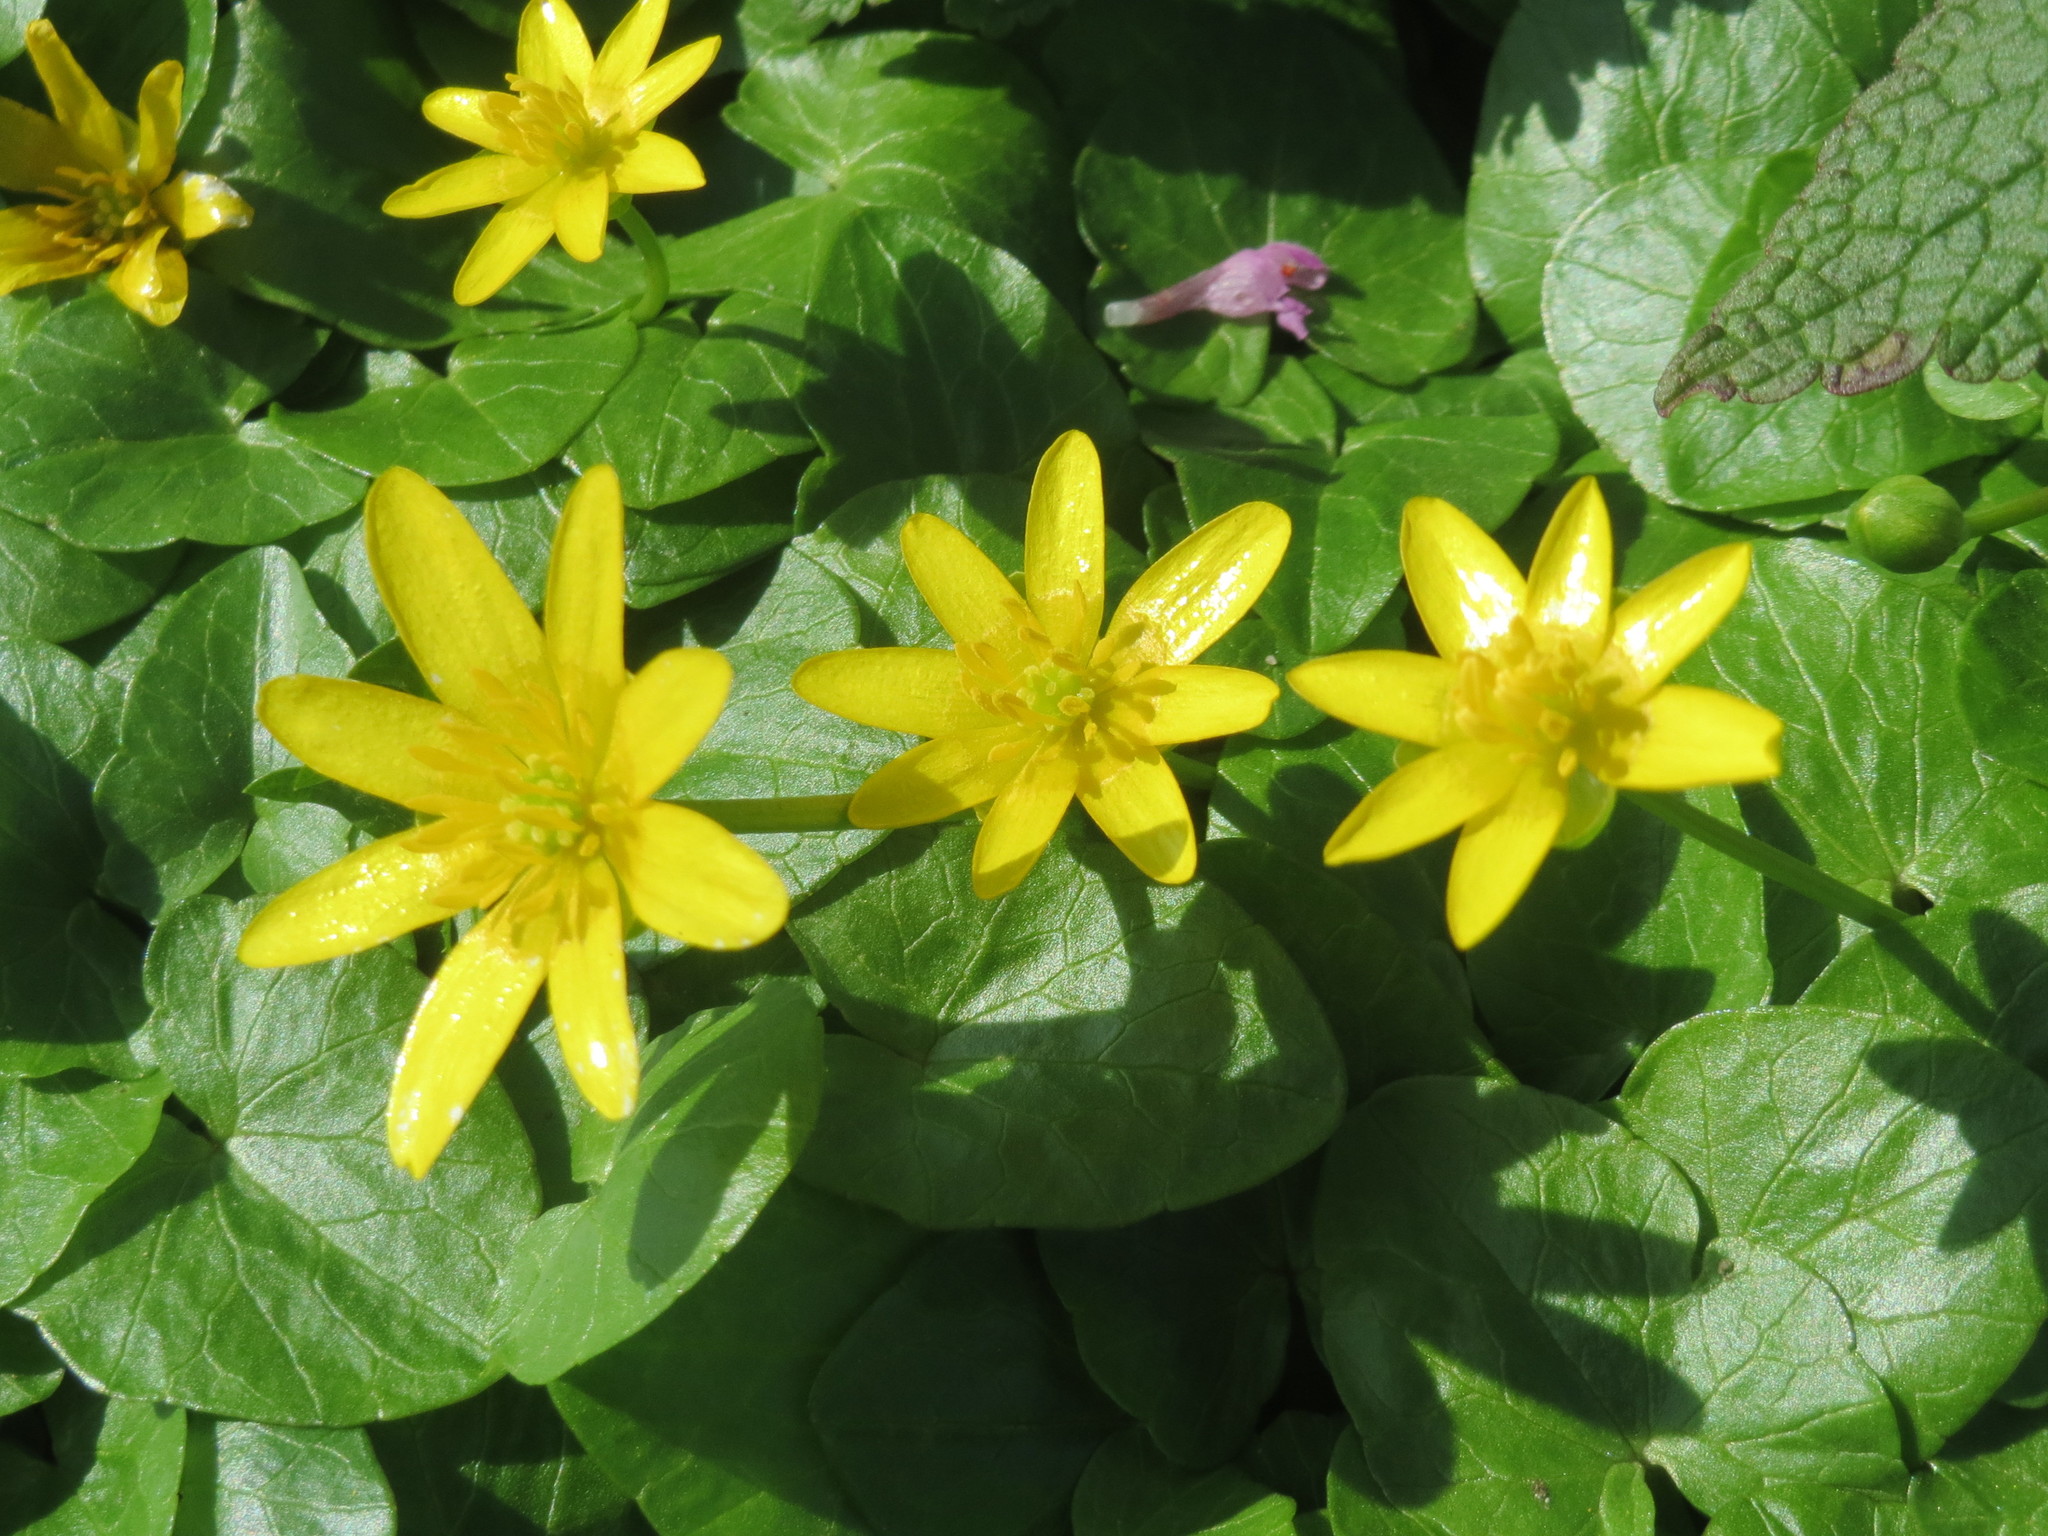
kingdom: Plantae
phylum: Tracheophyta
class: Magnoliopsida
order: Ranunculales
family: Ranunculaceae
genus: Ficaria
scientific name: Ficaria verna
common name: Lesser celandine
